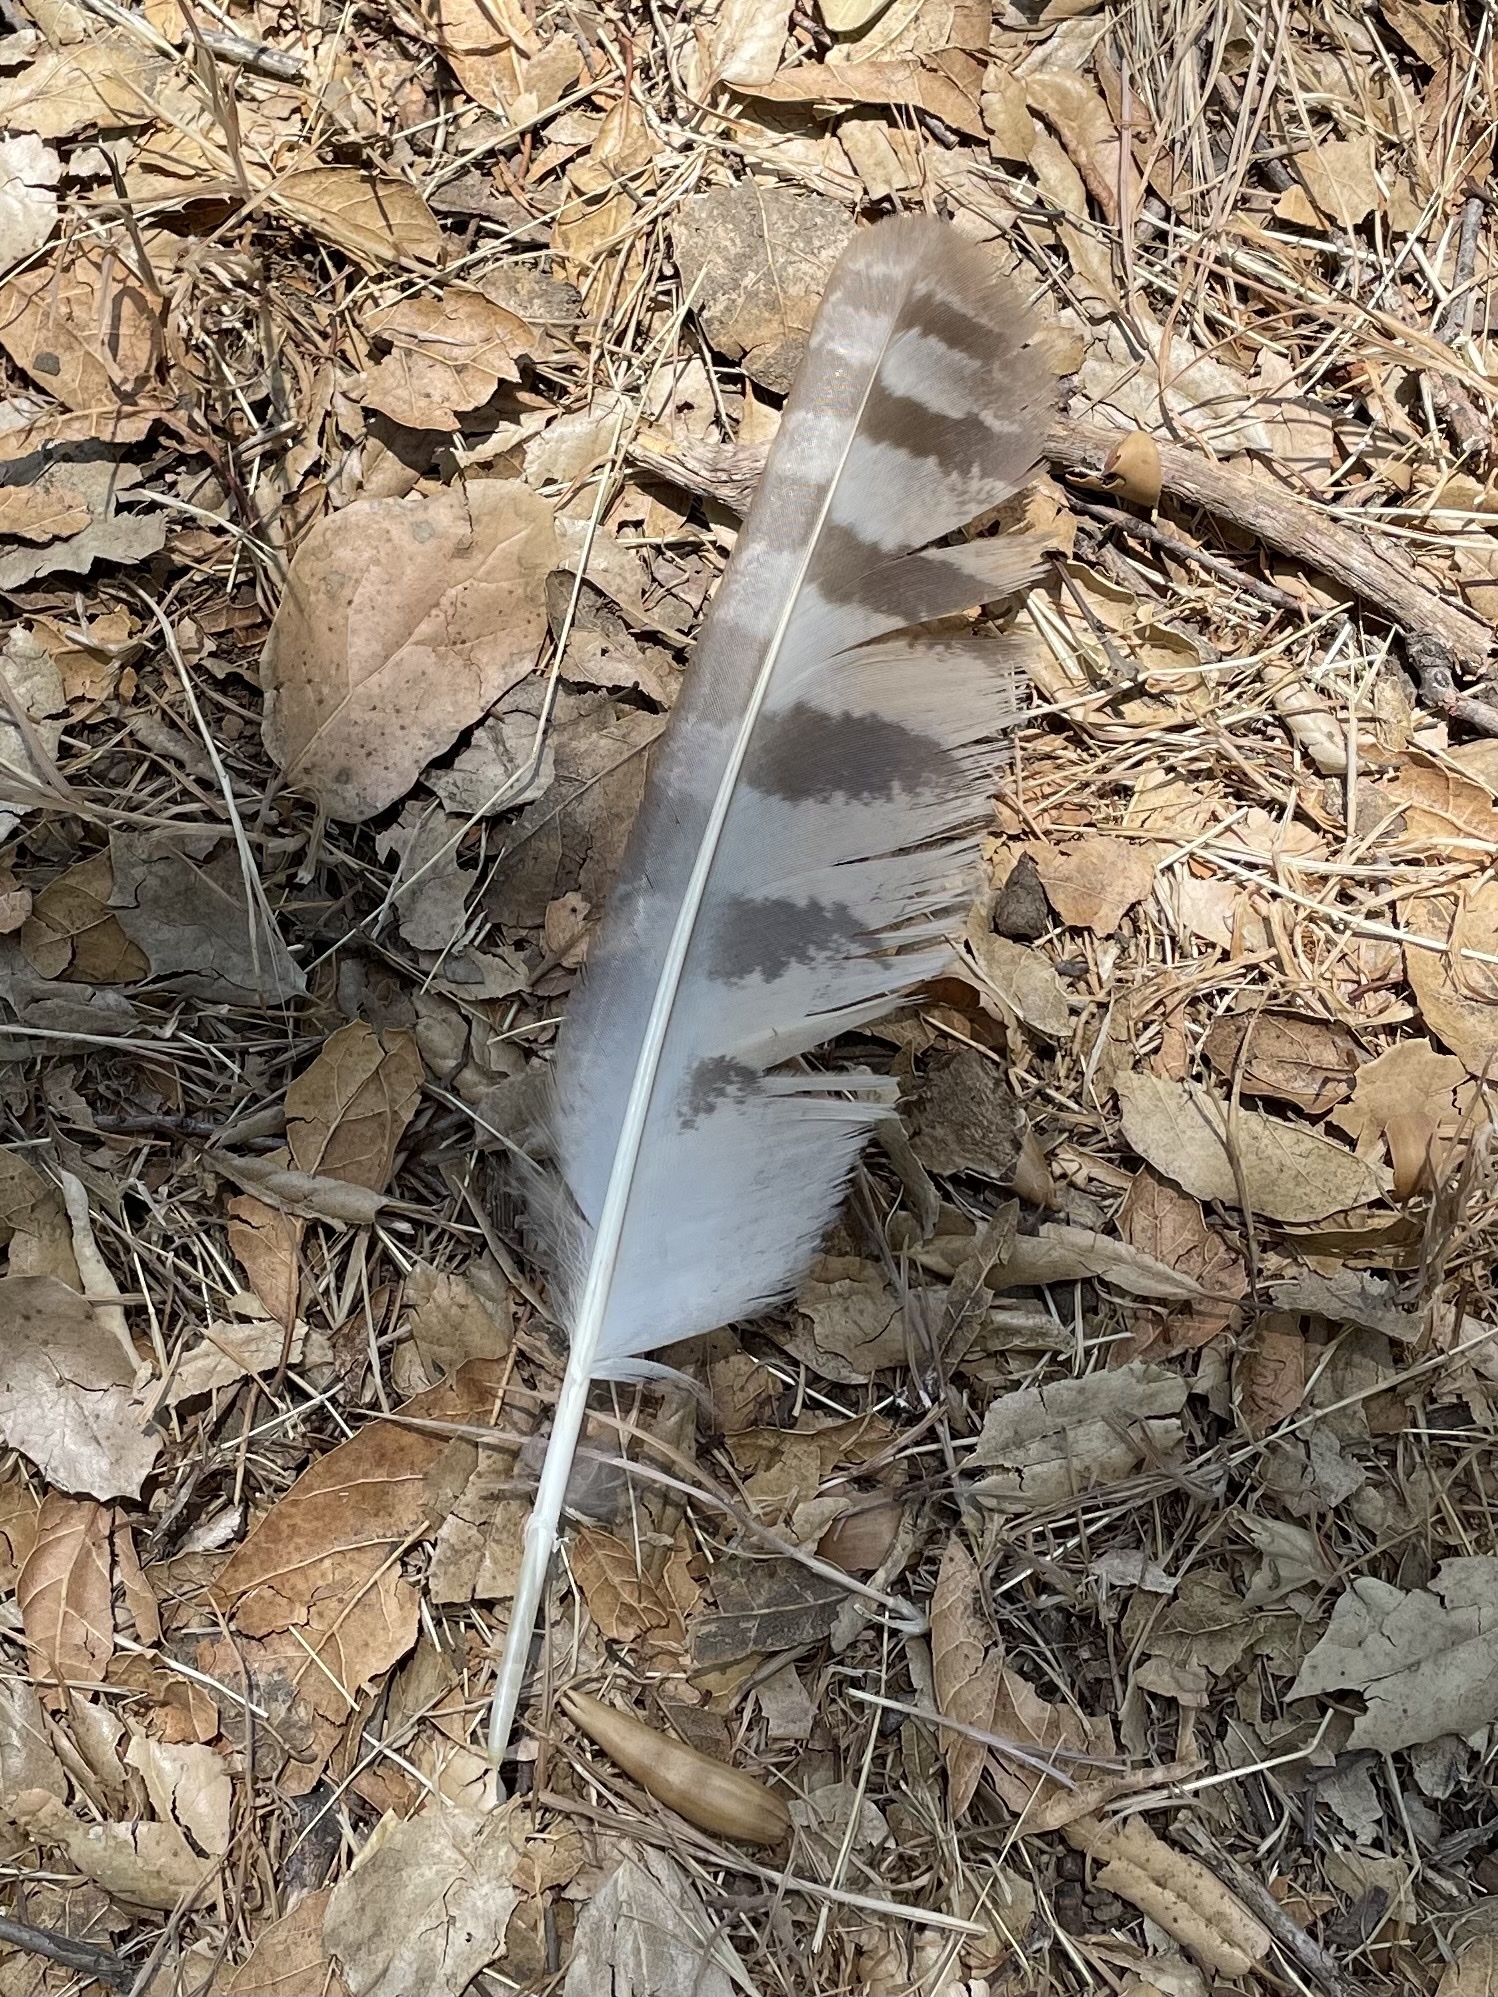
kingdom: Animalia
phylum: Chordata
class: Aves
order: Strigiformes
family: Strigidae
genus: Bubo
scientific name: Bubo virginianus
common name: Great horned owl
